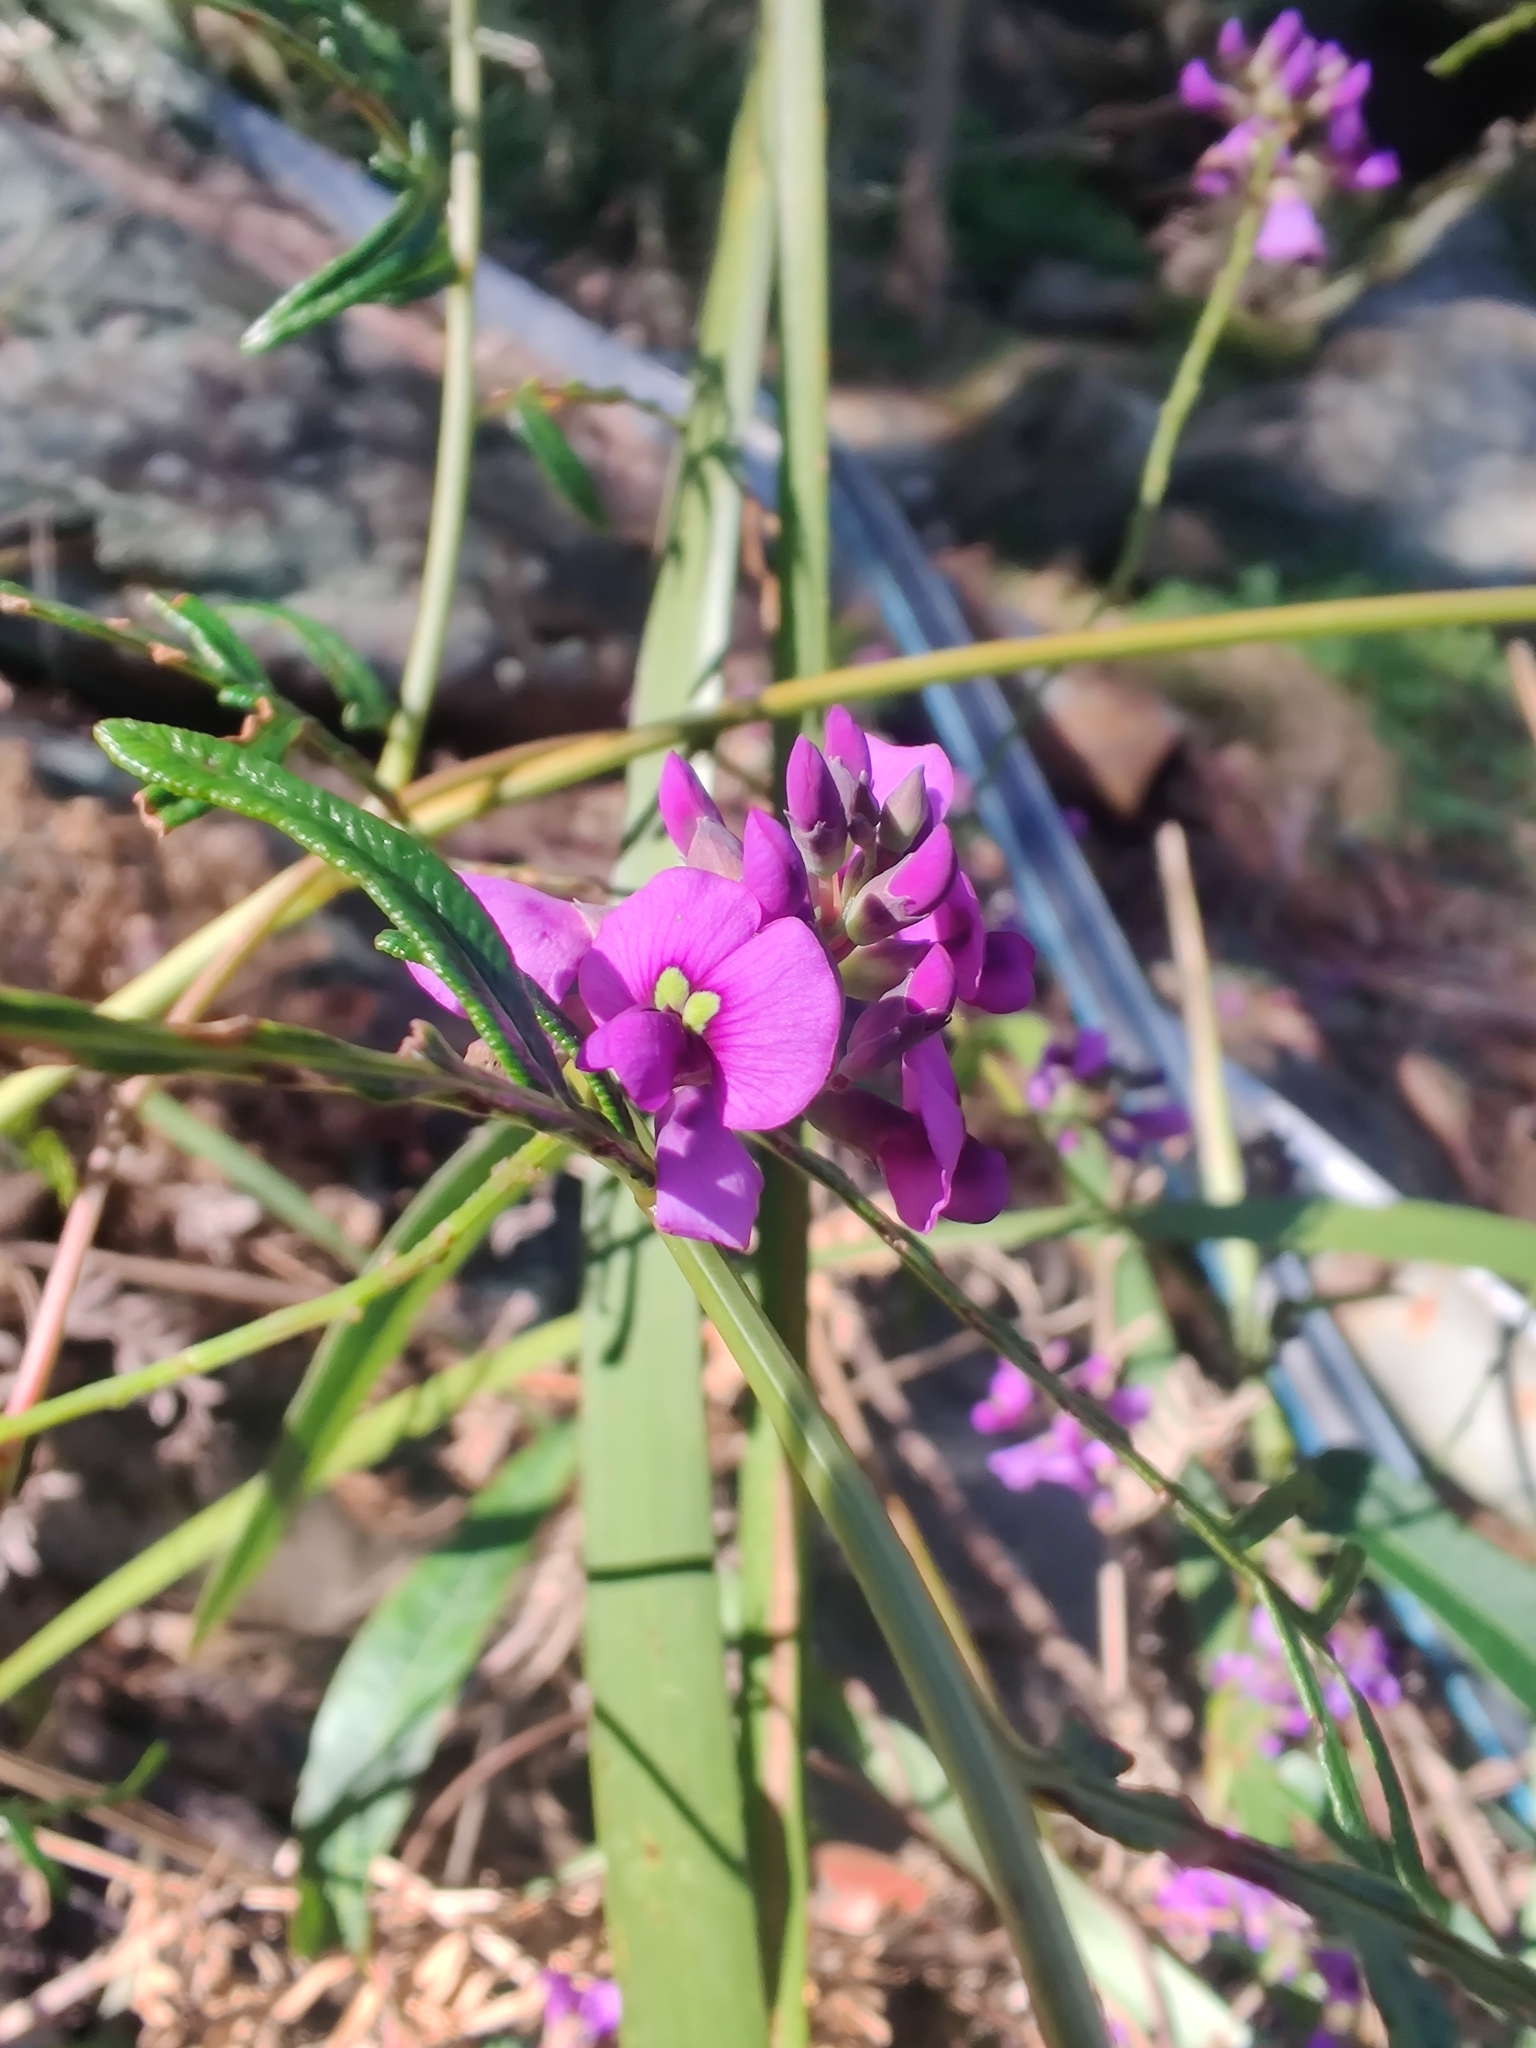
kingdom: Plantae
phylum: Tracheophyta
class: Magnoliopsida
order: Fabales
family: Fabaceae
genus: Hardenbergia
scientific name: Hardenbergia violacea
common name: Coral-pea
